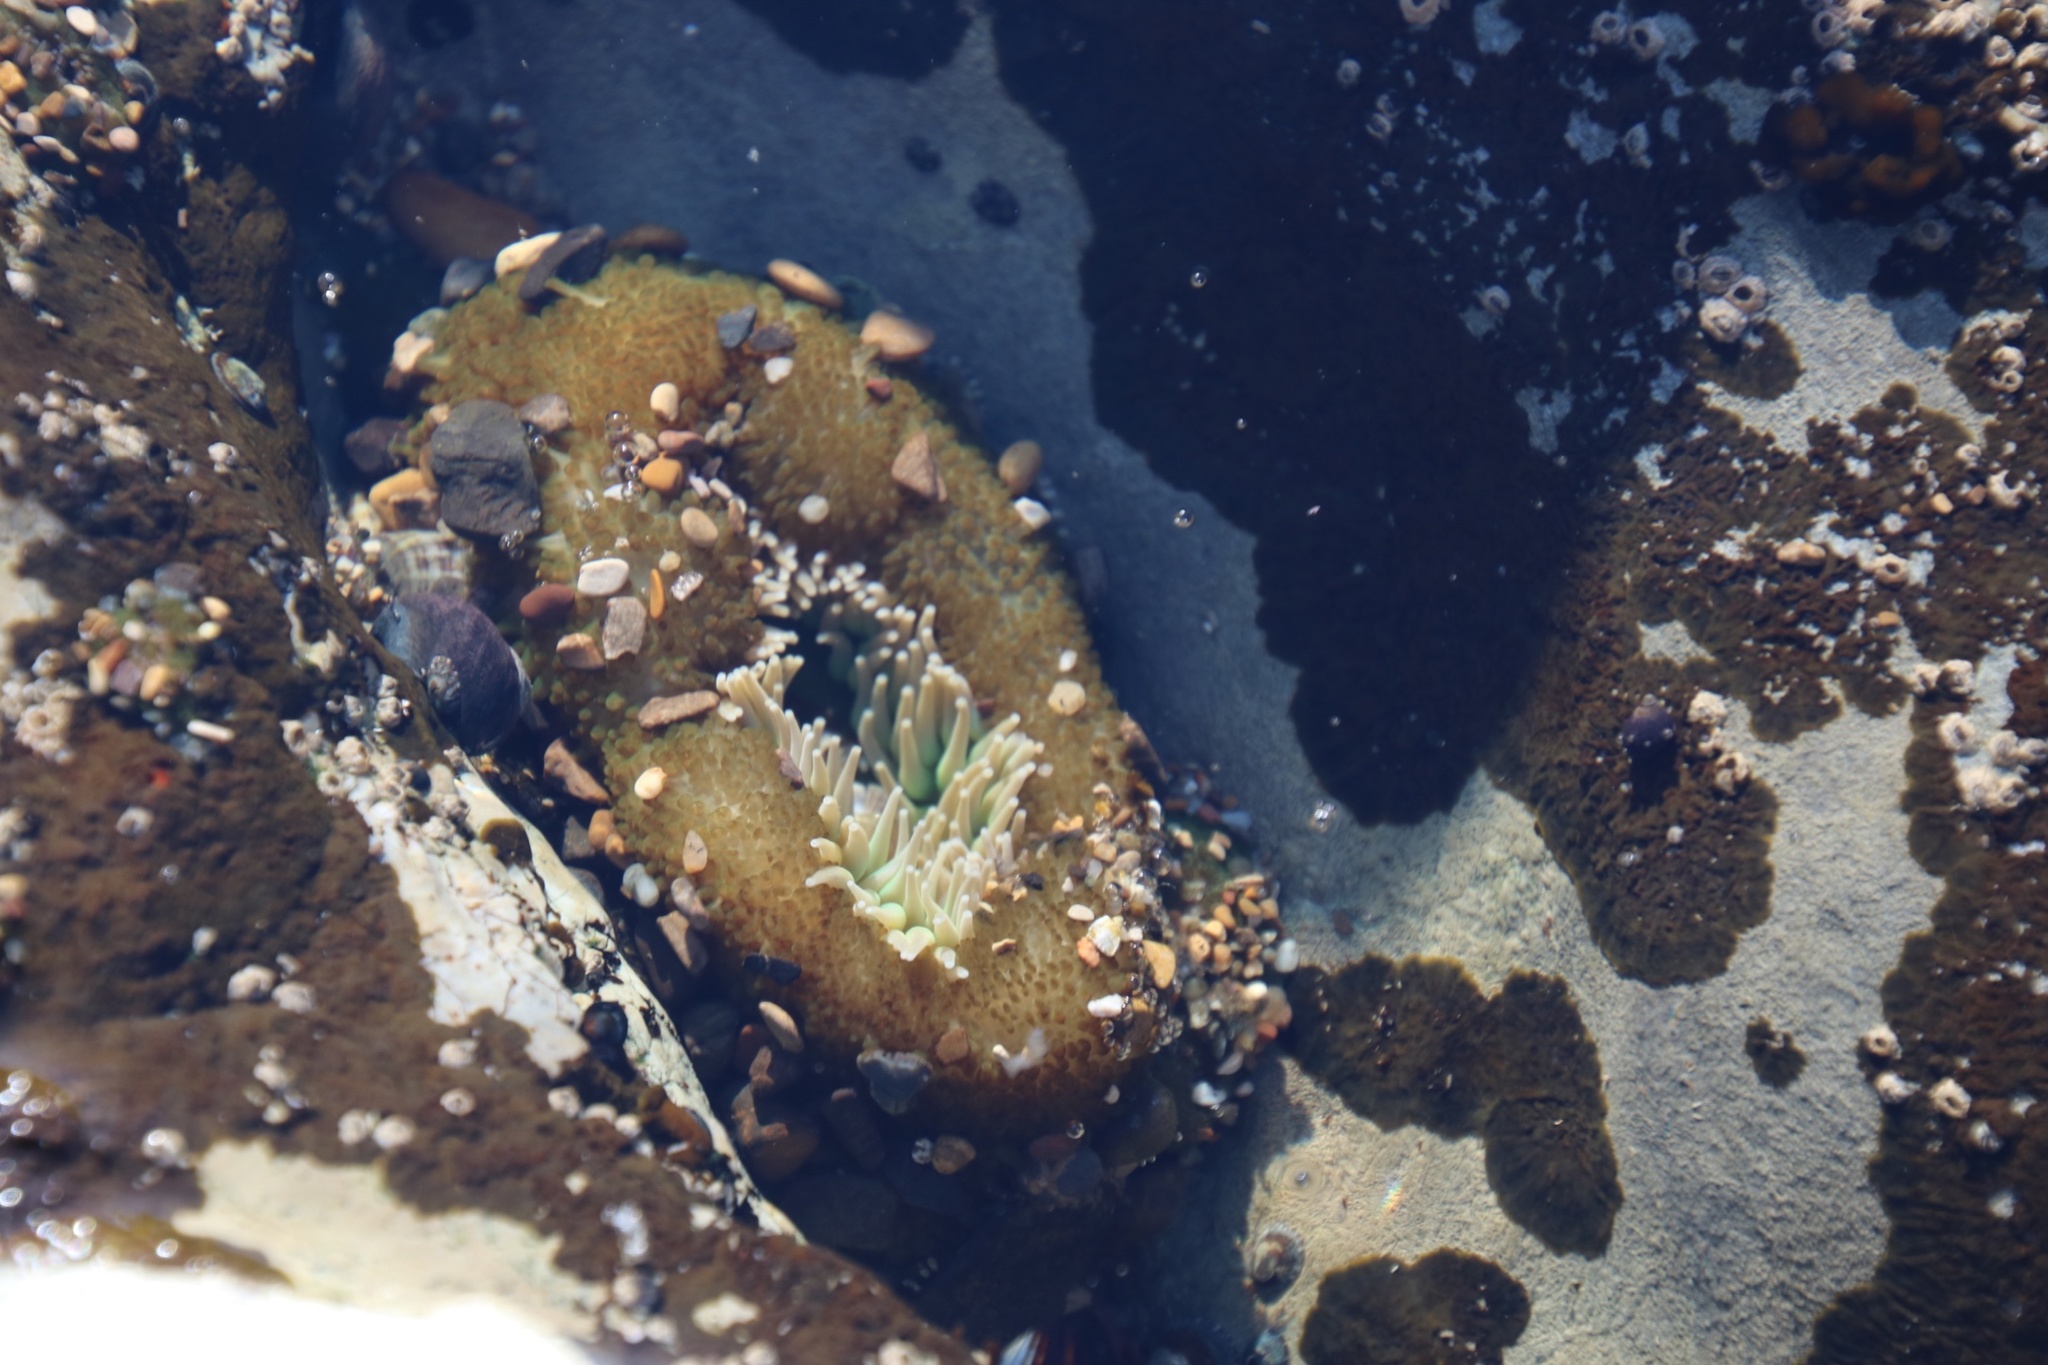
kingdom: Animalia
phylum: Cnidaria
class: Anthozoa
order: Actiniaria
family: Actiniidae
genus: Anthopleura
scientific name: Anthopleura xanthogrammica
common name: Giant green anemone
